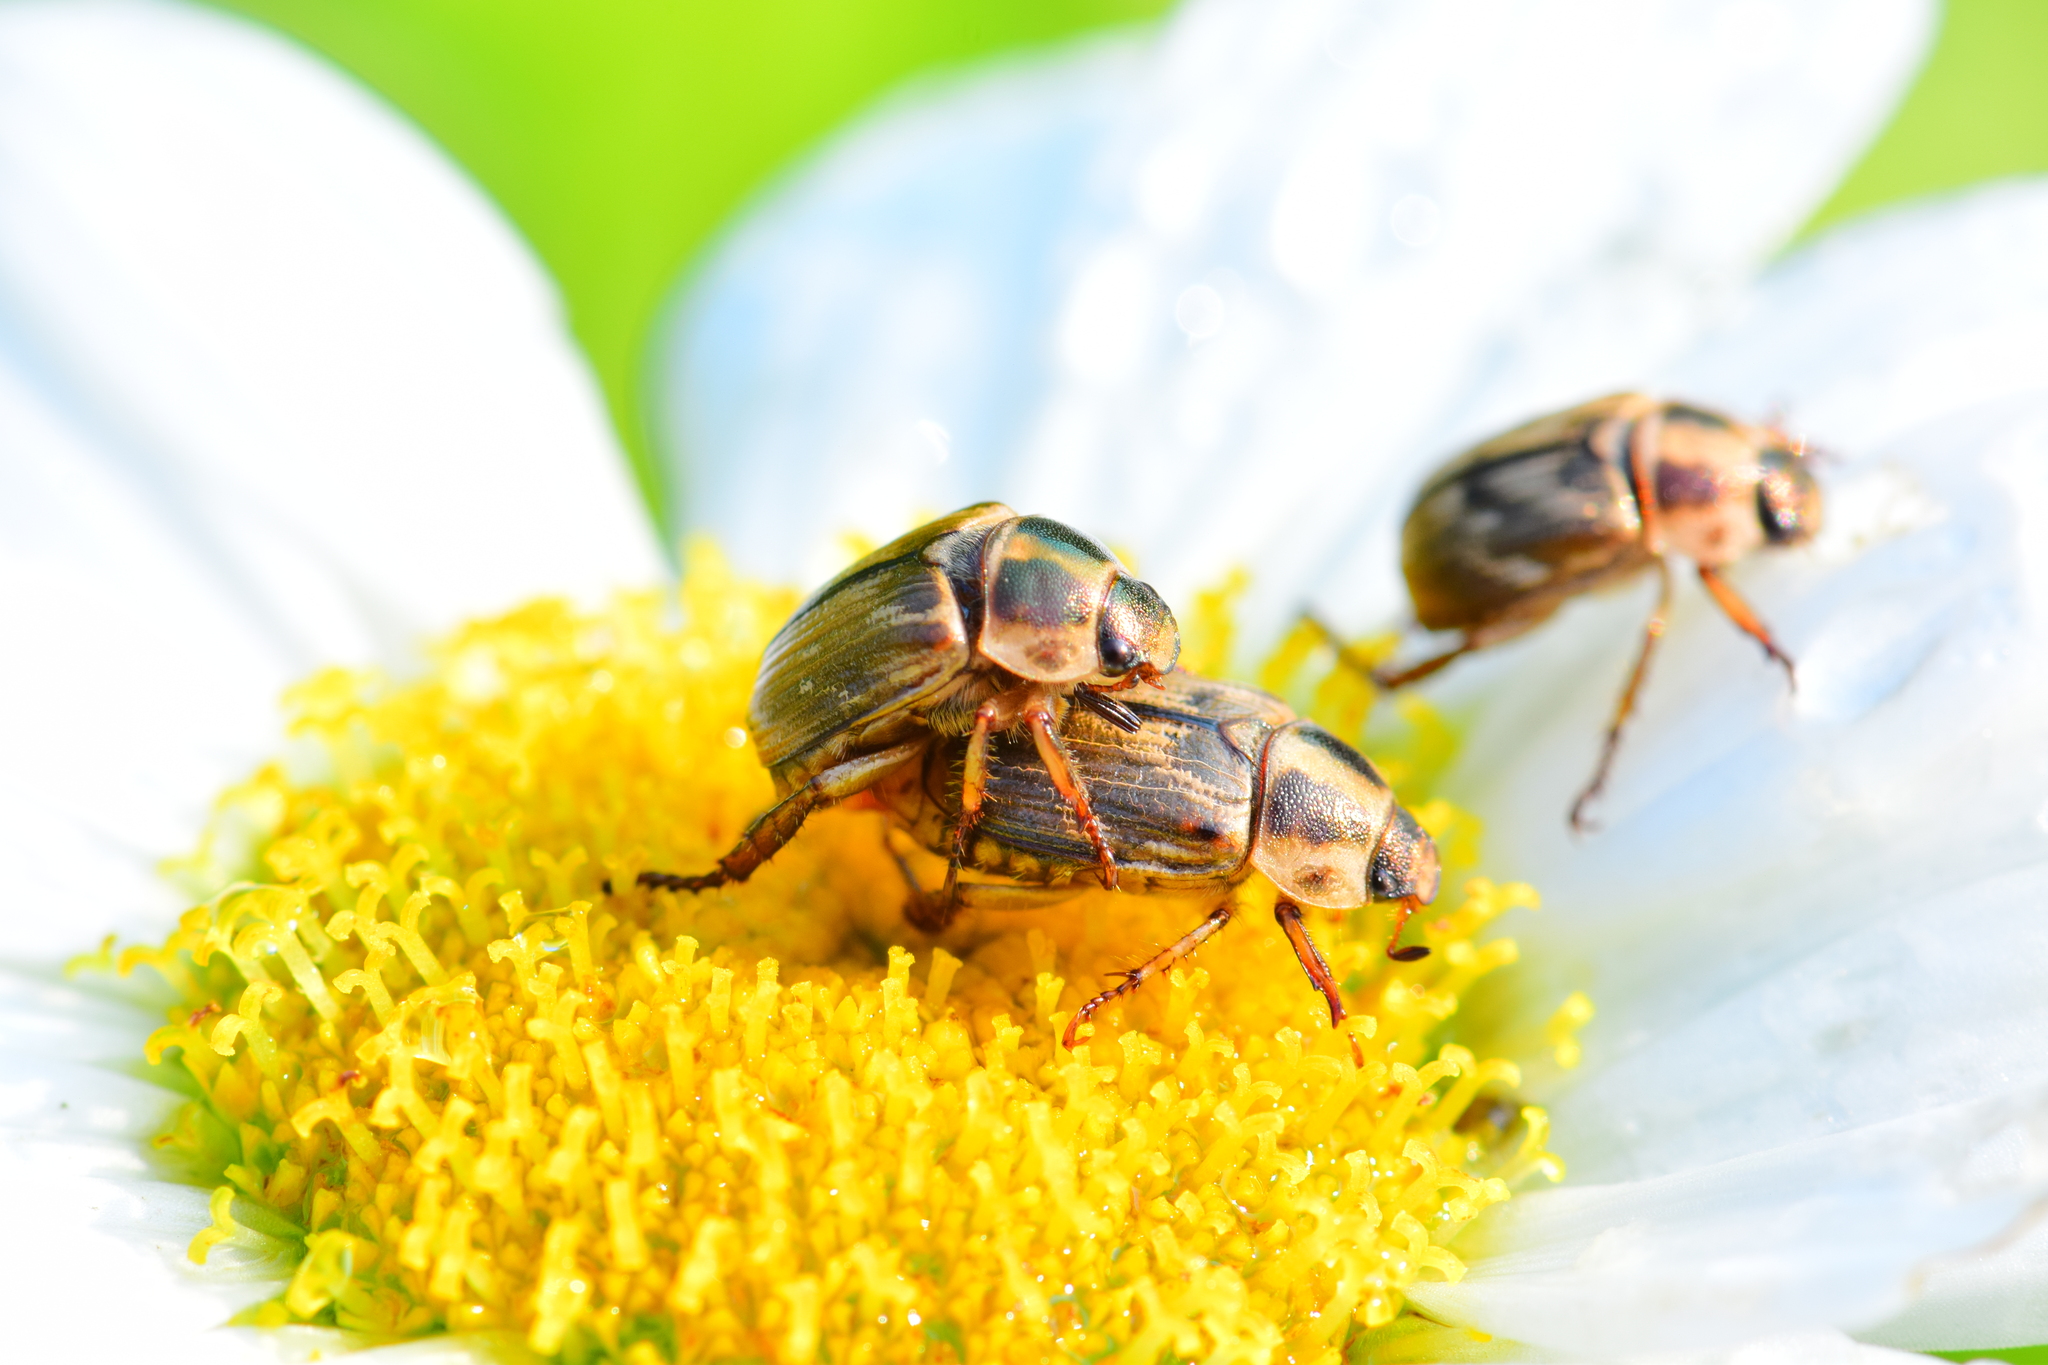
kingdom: Animalia
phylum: Arthropoda
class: Insecta
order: Coleoptera
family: Scarabaeidae
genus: Exomala
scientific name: Exomala orientalis
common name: Oriental beetle
